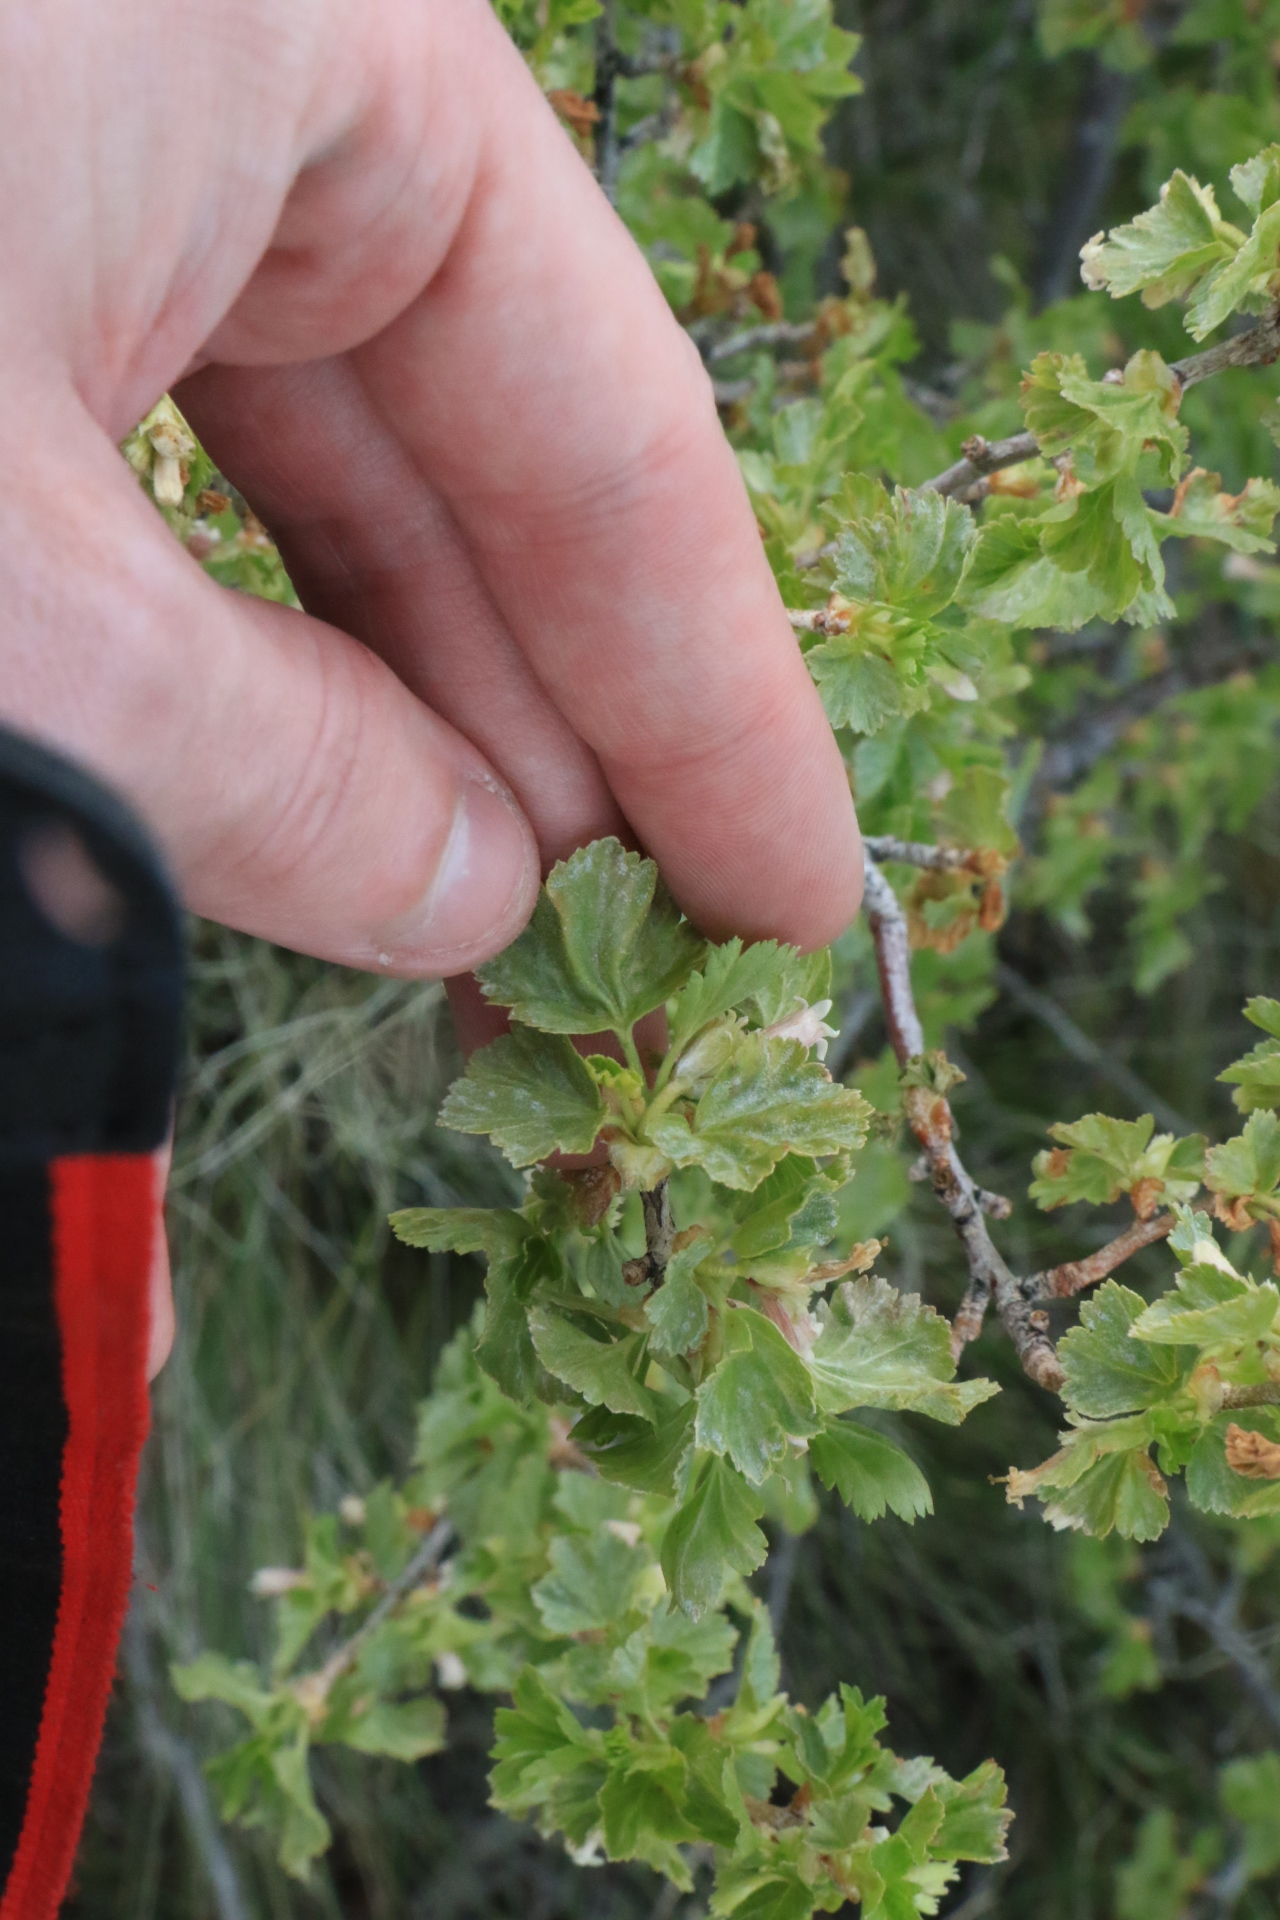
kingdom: Plantae
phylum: Tracheophyta
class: Magnoliopsida
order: Saxifragales
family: Grossulariaceae
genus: Ribes
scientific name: Ribes cereum
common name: Wax currant
